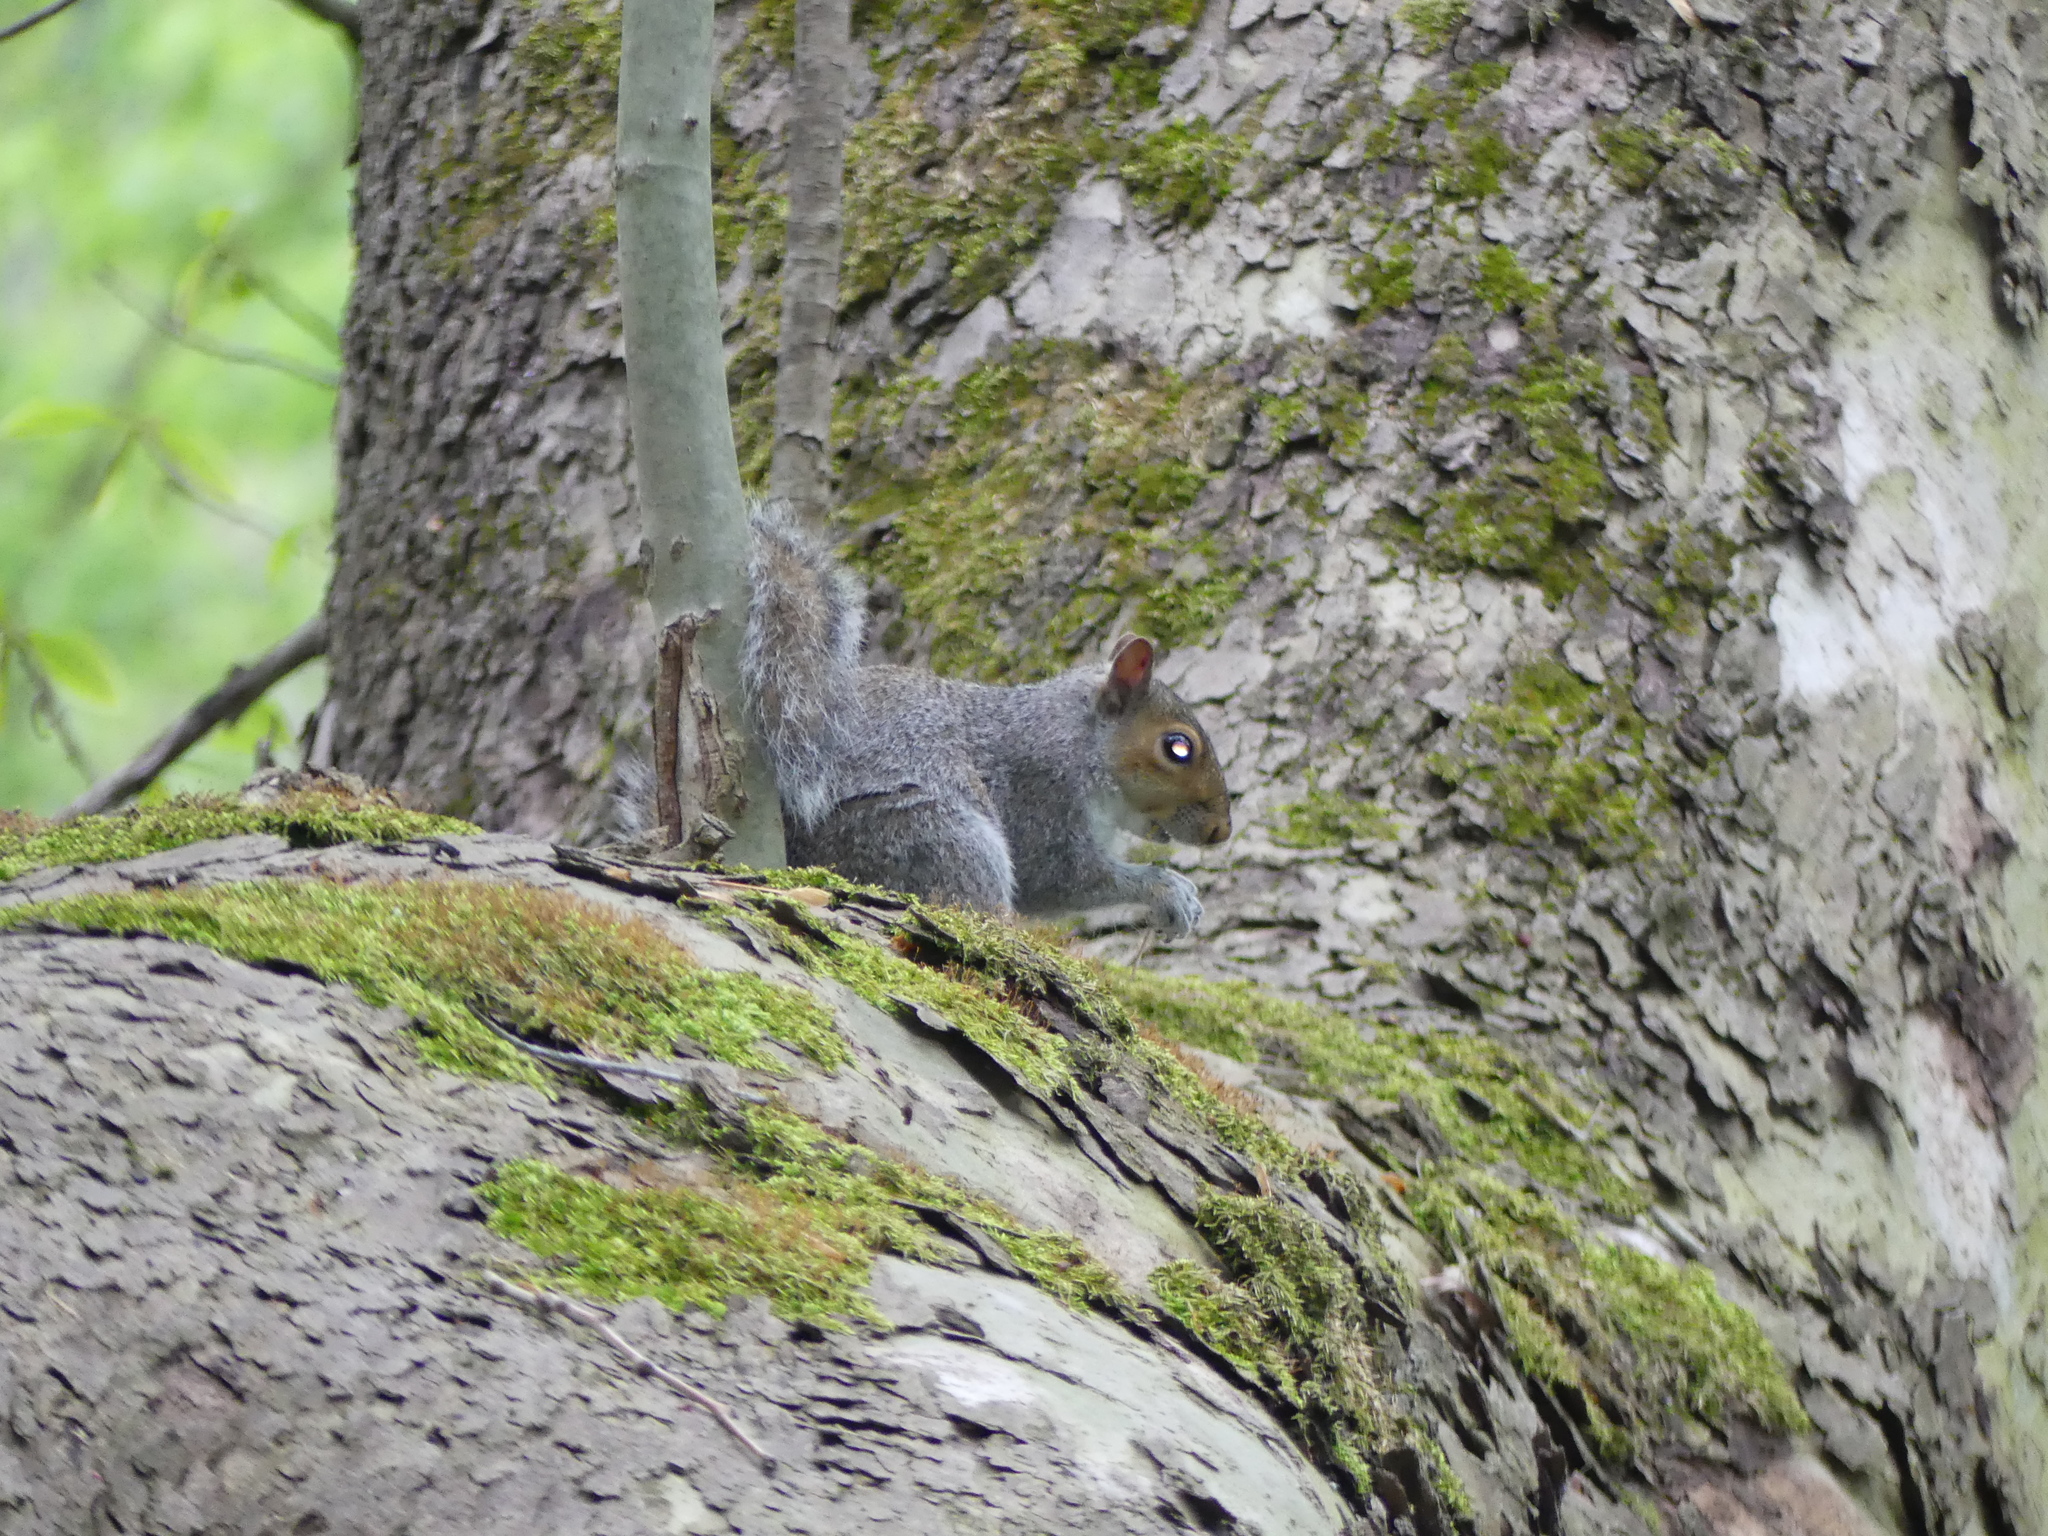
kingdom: Animalia
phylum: Chordata
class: Mammalia
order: Rodentia
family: Sciuridae
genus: Sciurus
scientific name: Sciurus carolinensis
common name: Eastern gray squirrel
